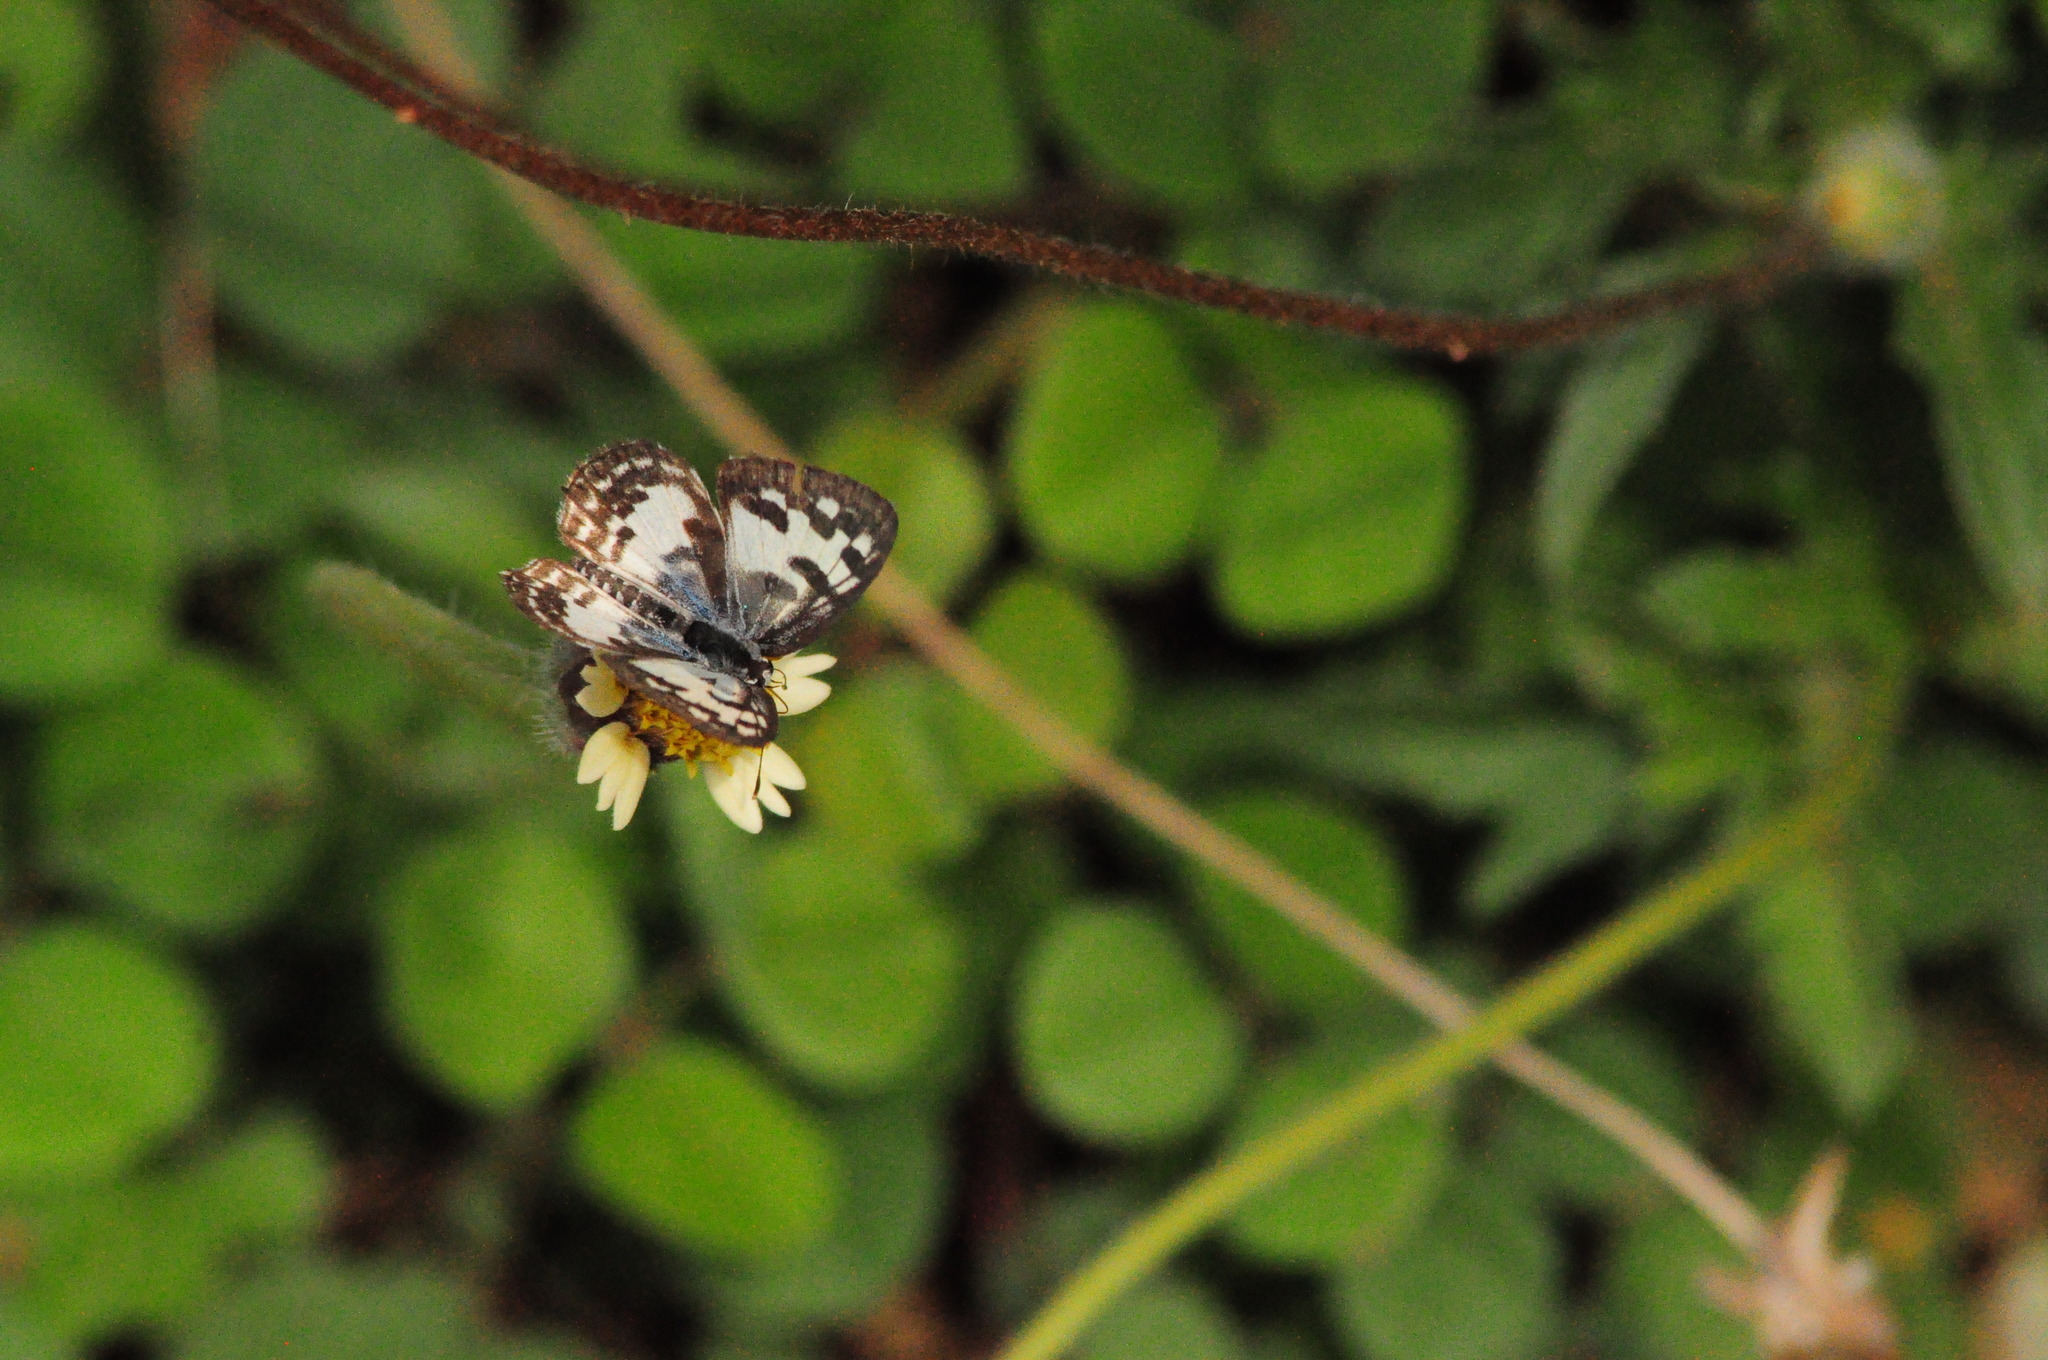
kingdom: Animalia
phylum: Arthropoda
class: Insecta
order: Lepidoptera
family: Lycaenidae
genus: Castalius
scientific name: Castalius rosimon
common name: Common pierrot
